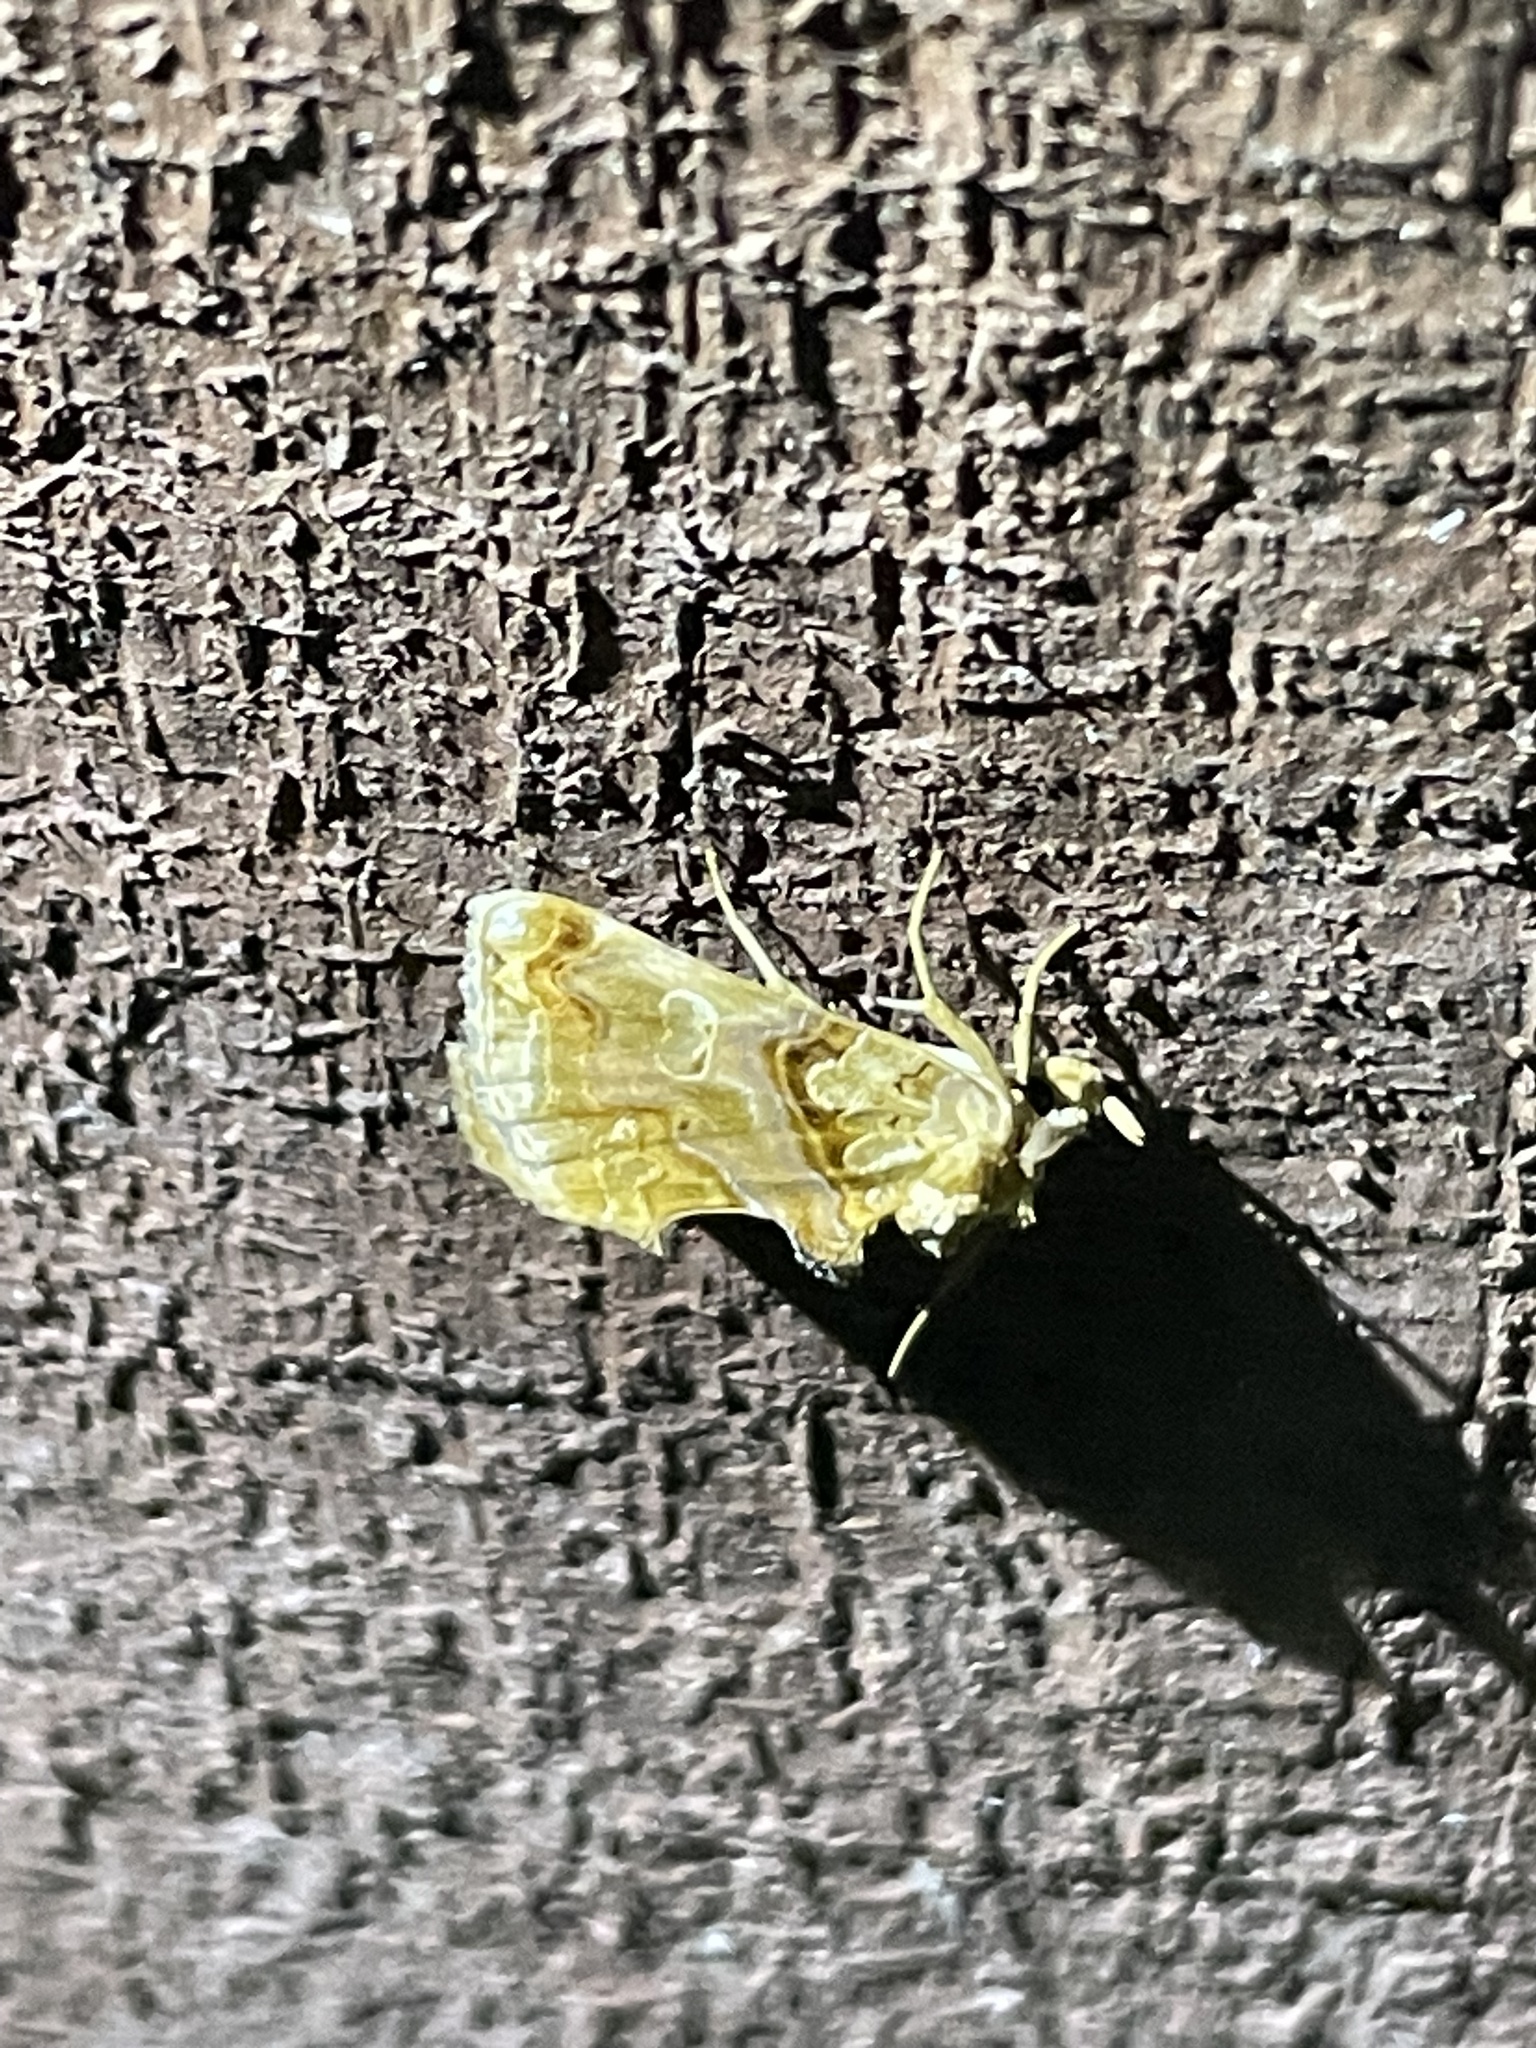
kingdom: Animalia
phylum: Arthropoda
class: Insecta
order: Lepidoptera
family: Erebidae
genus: Plusiodonta
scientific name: Plusiodonta compressipalpis
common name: Moonseed moth
